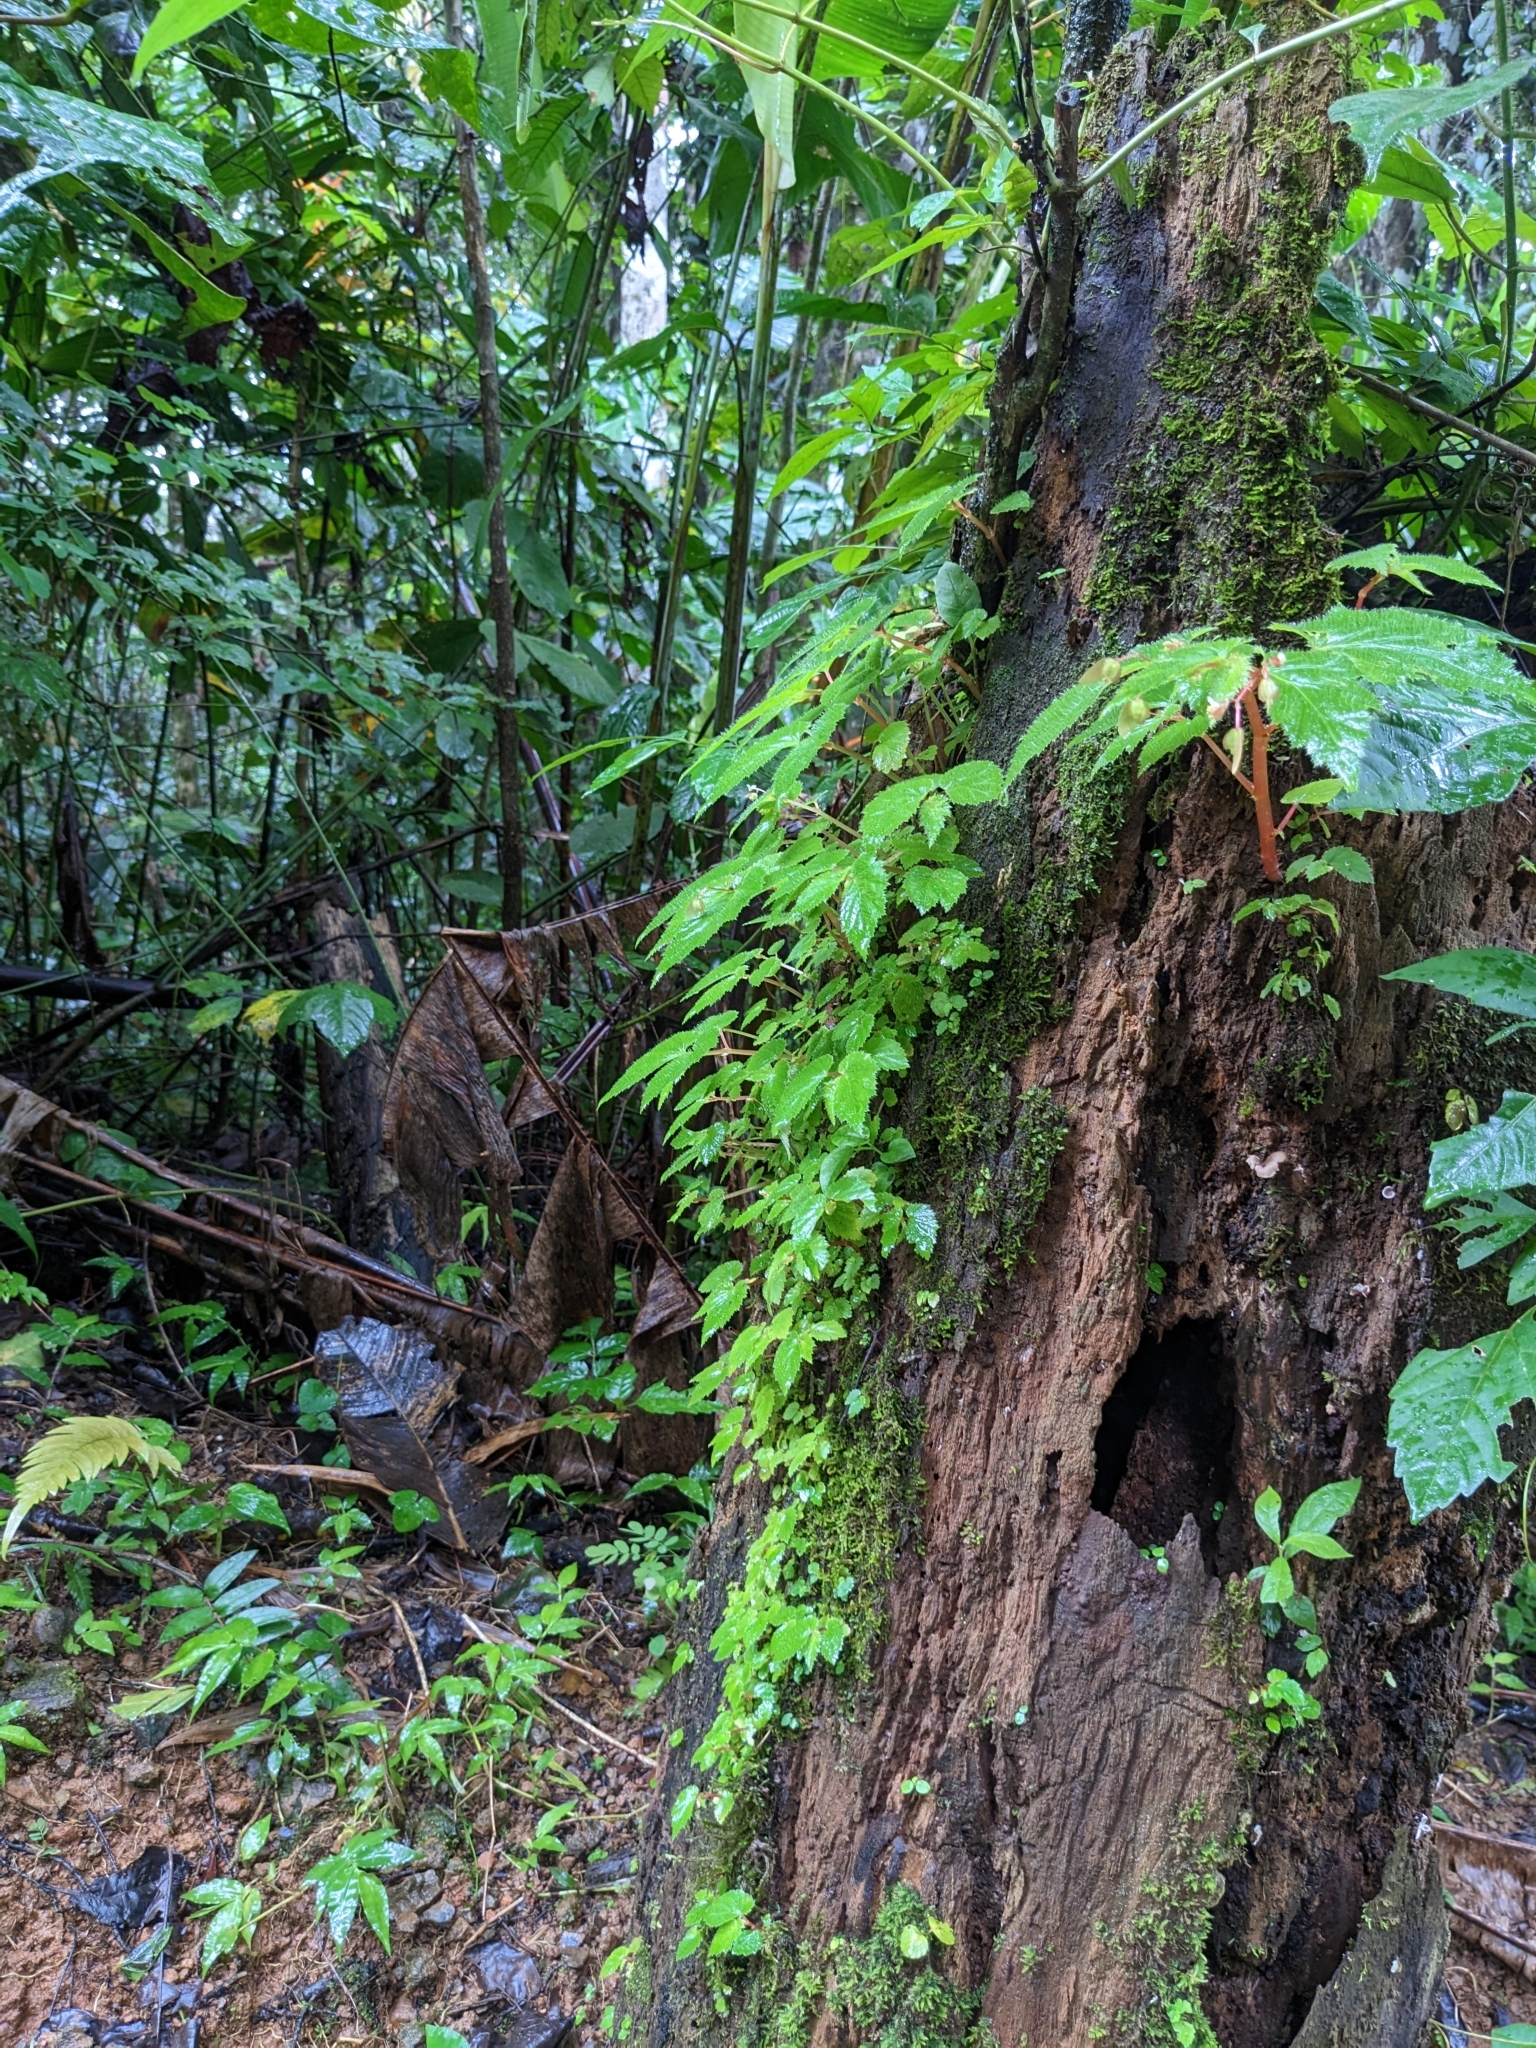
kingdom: Plantae
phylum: Tracheophyta
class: Magnoliopsida
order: Cucurbitales
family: Begoniaceae
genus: Begonia
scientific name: Begonia hirsuta
